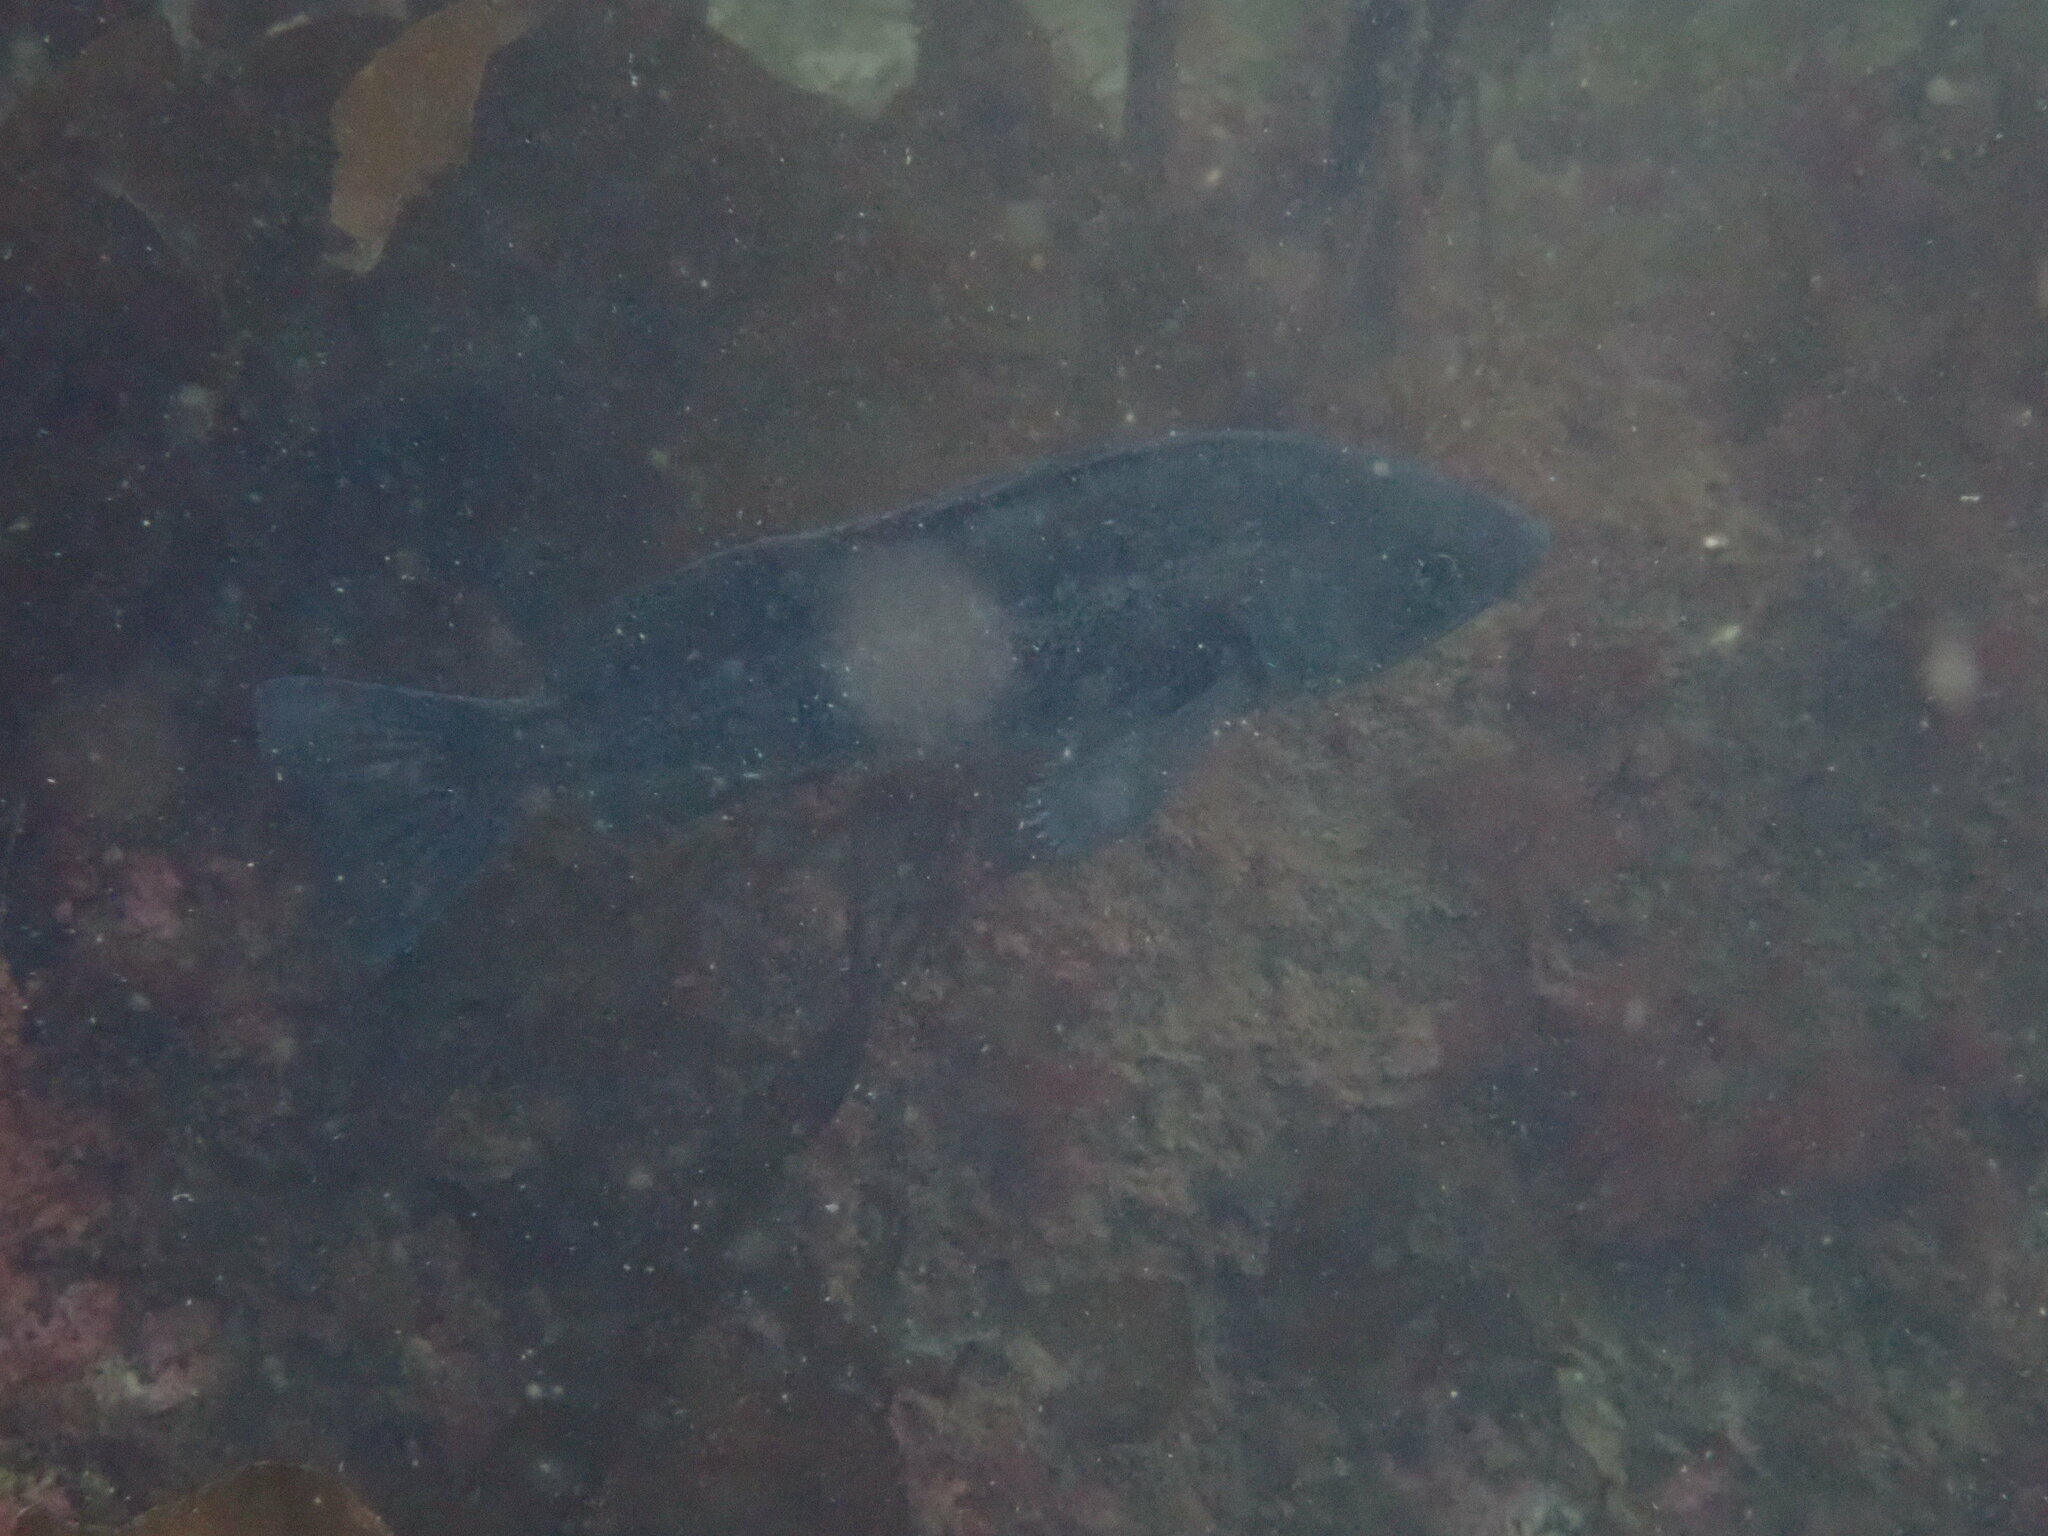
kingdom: Animalia
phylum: Chordata
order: Scorpaeniformes
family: Sebastidae
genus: Sebastes
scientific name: Sebastes melanops
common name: Black rockfish
